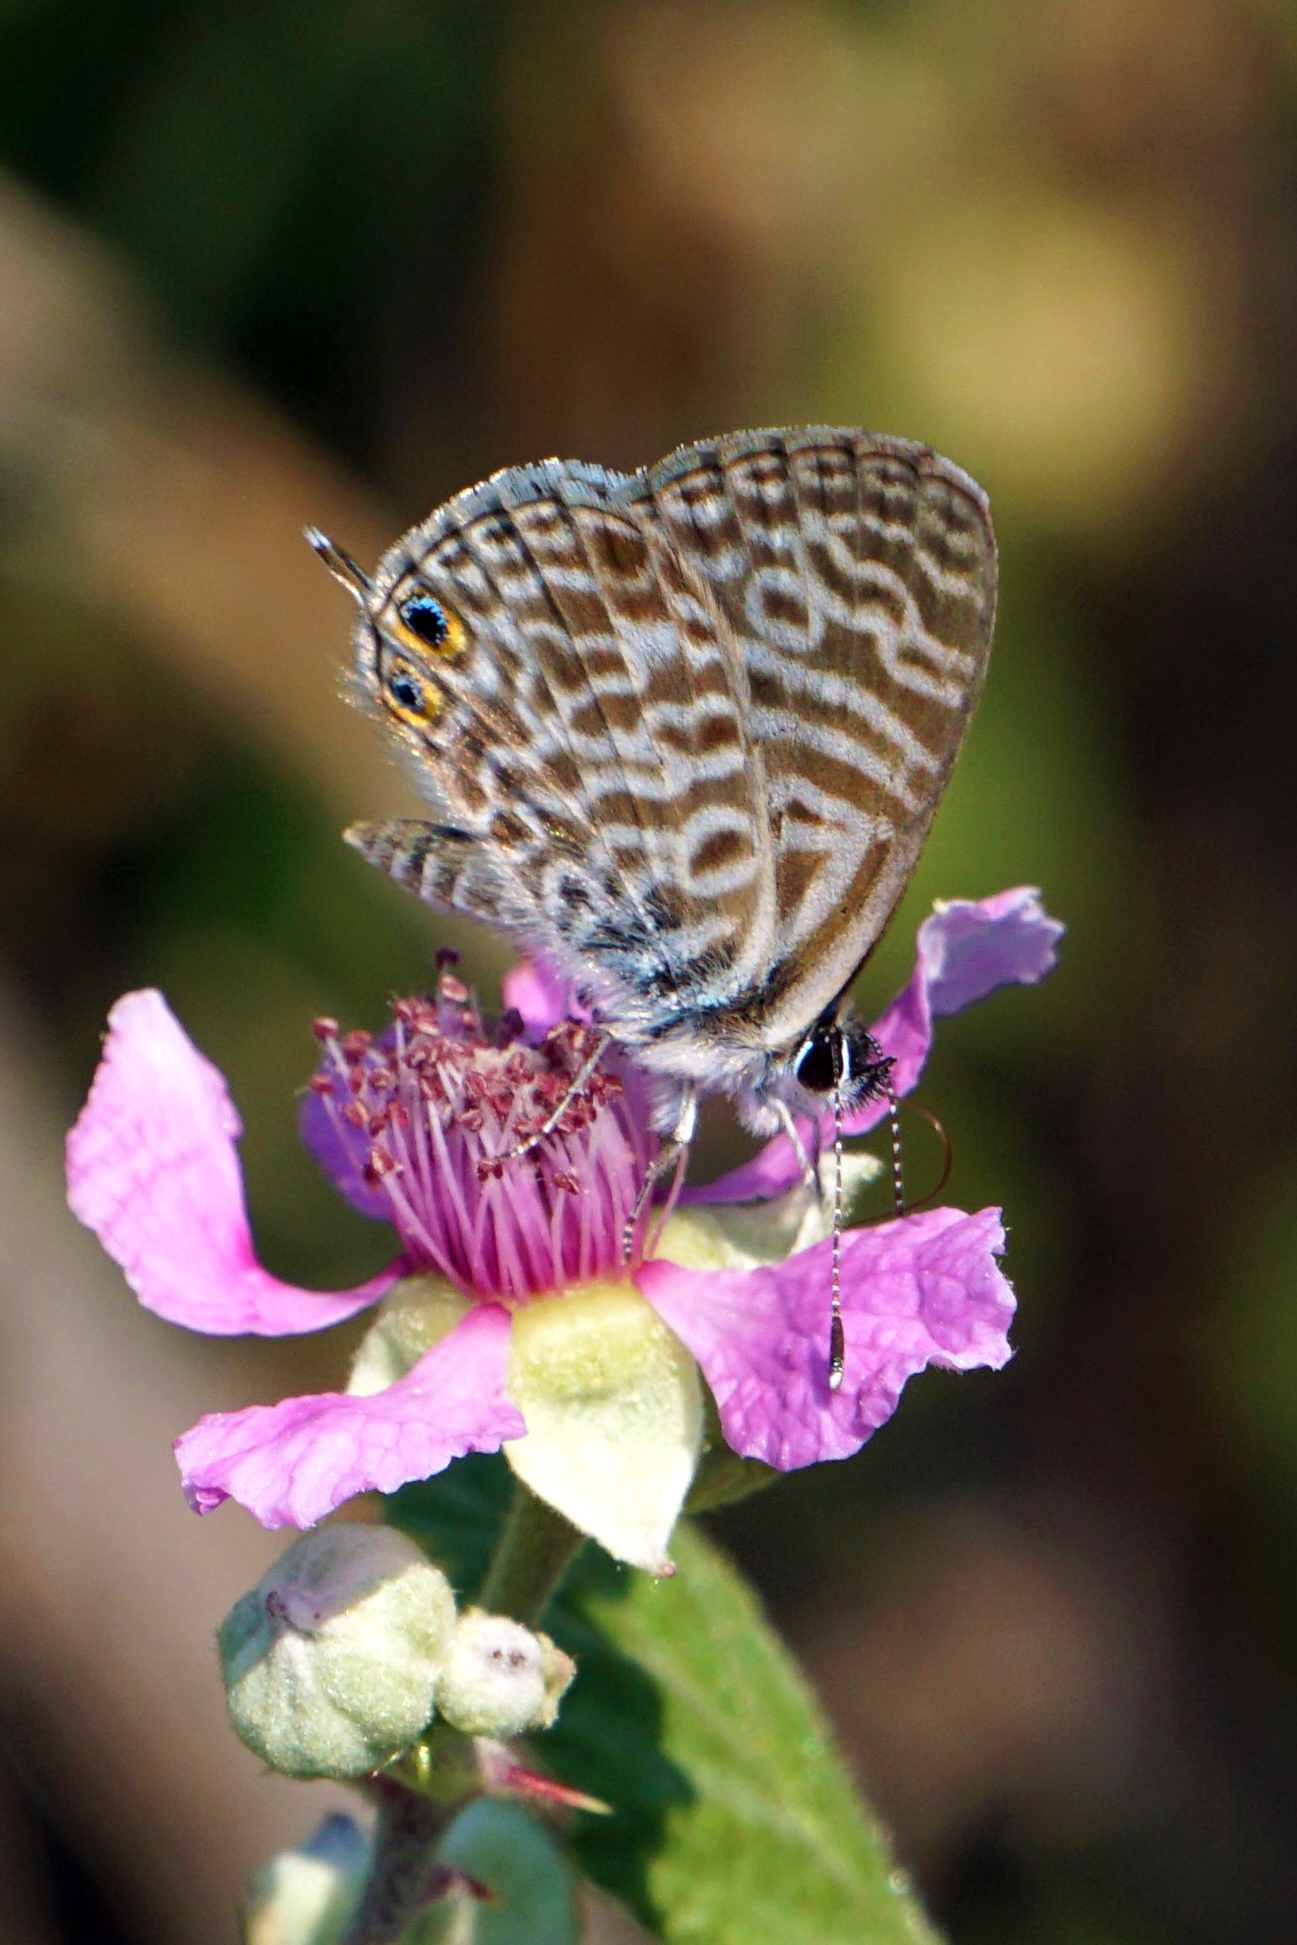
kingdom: Animalia
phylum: Arthropoda
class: Insecta
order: Lepidoptera
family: Lycaenidae
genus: Leptotes
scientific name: Leptotes pirithous
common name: Lang's short-tailed blue
